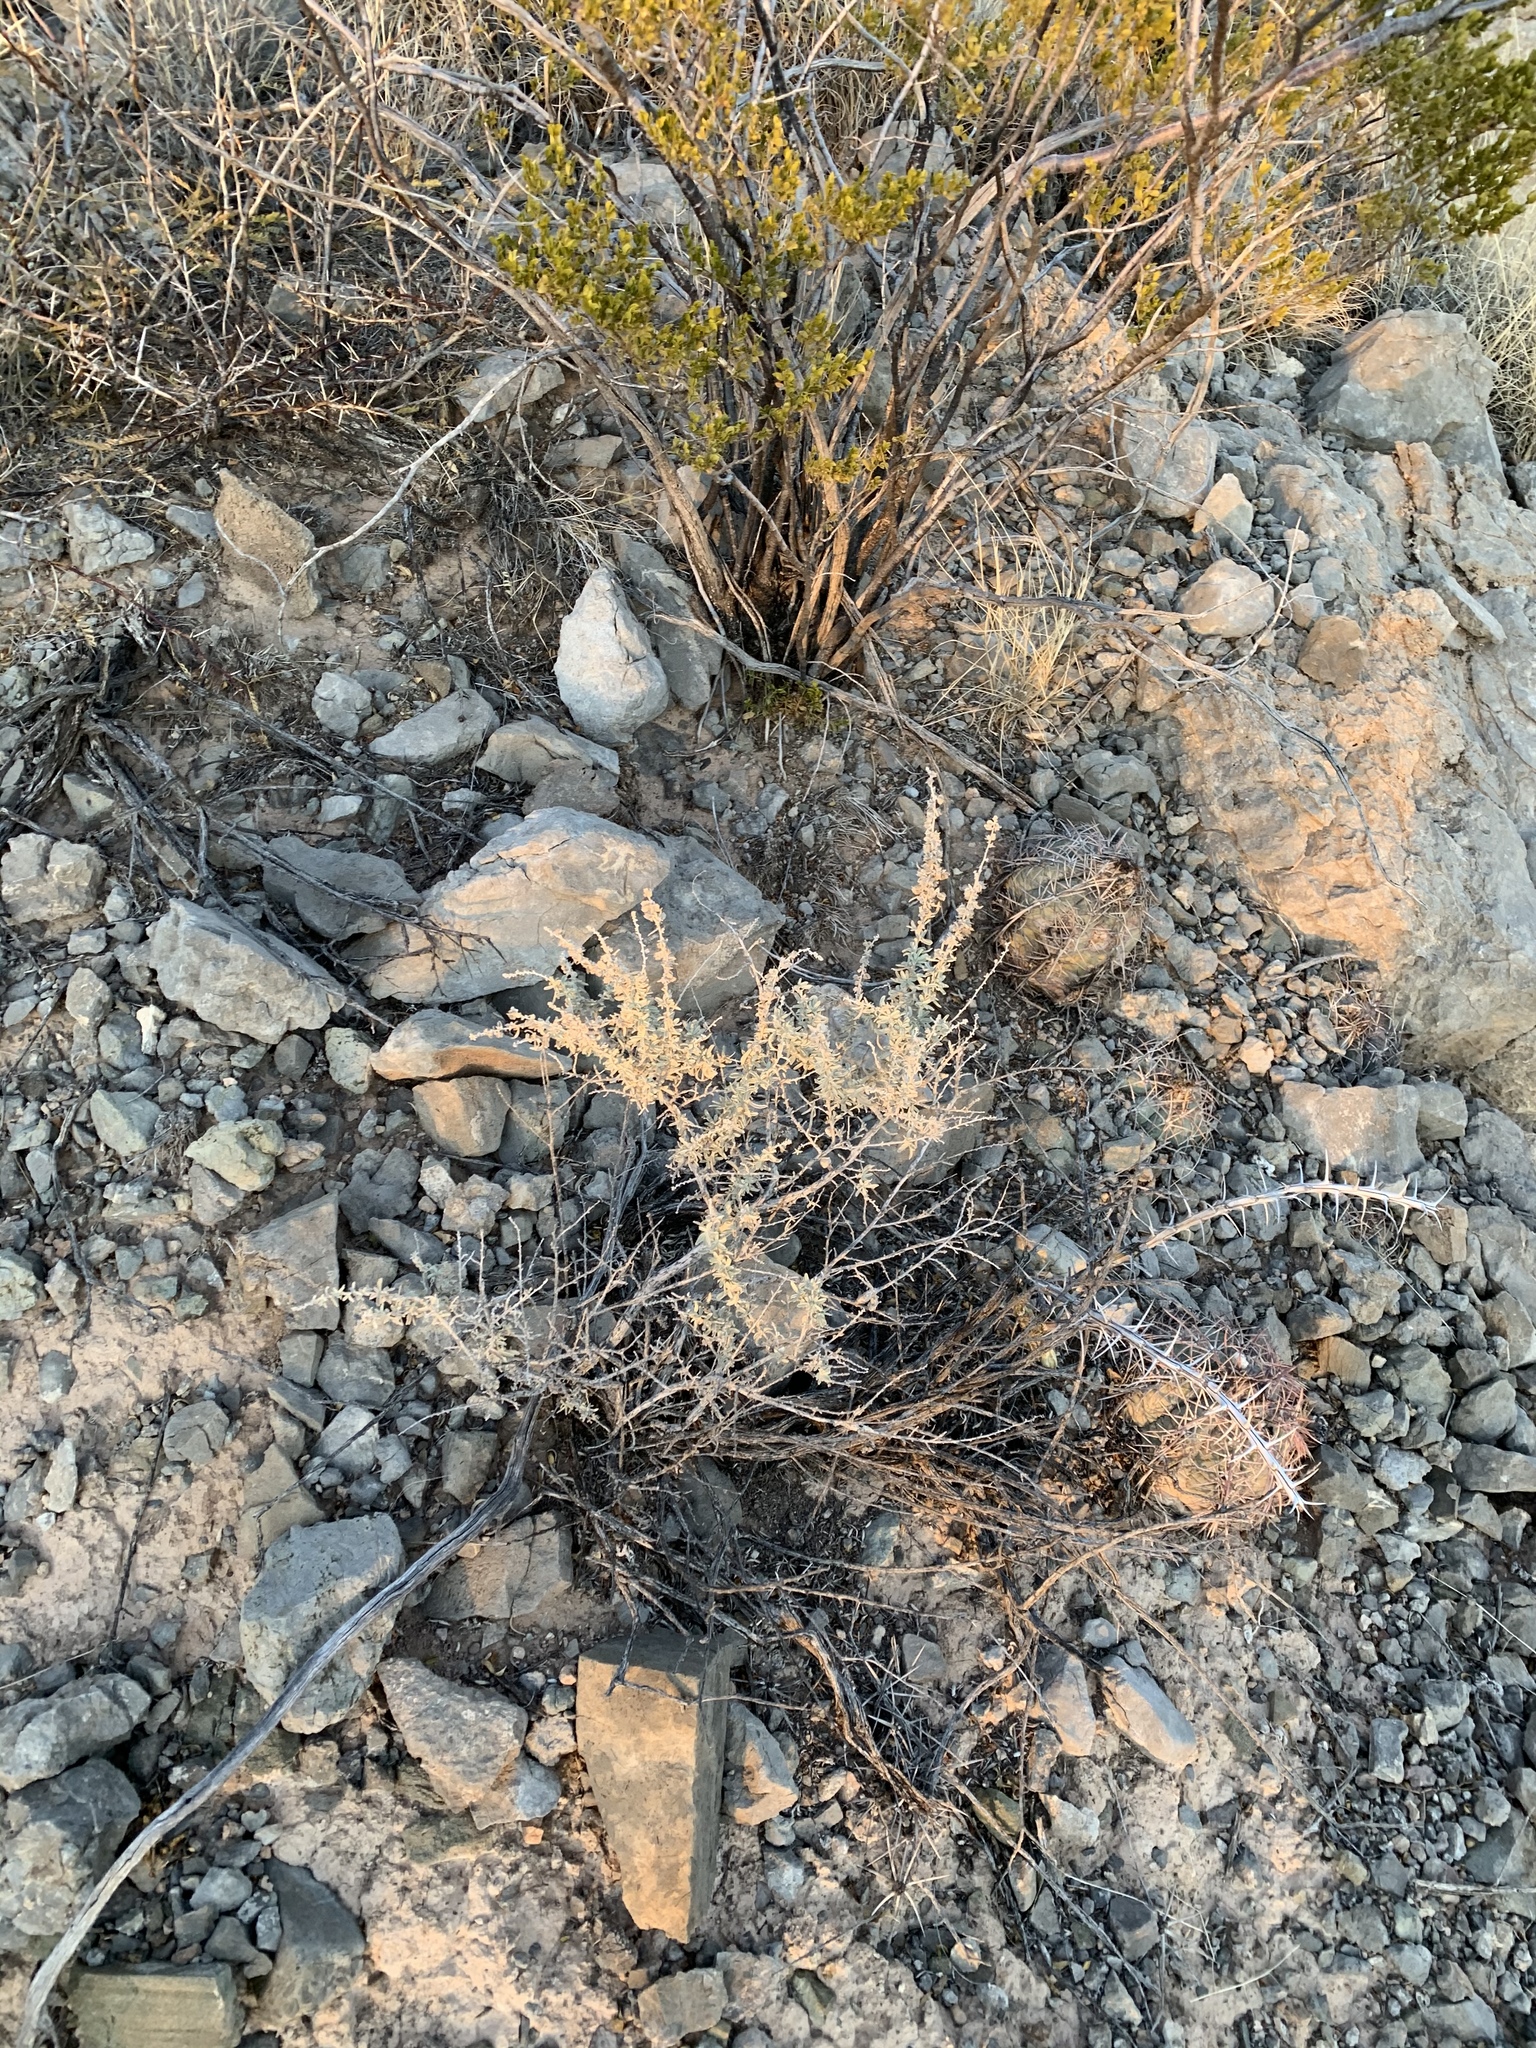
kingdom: Plantae
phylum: Tracheophyta
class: Magnoliopsida
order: Caryophyllales
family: Amaranthaceae
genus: Atriplex
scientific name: Atriplex canescens
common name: Four-wing saltbush
